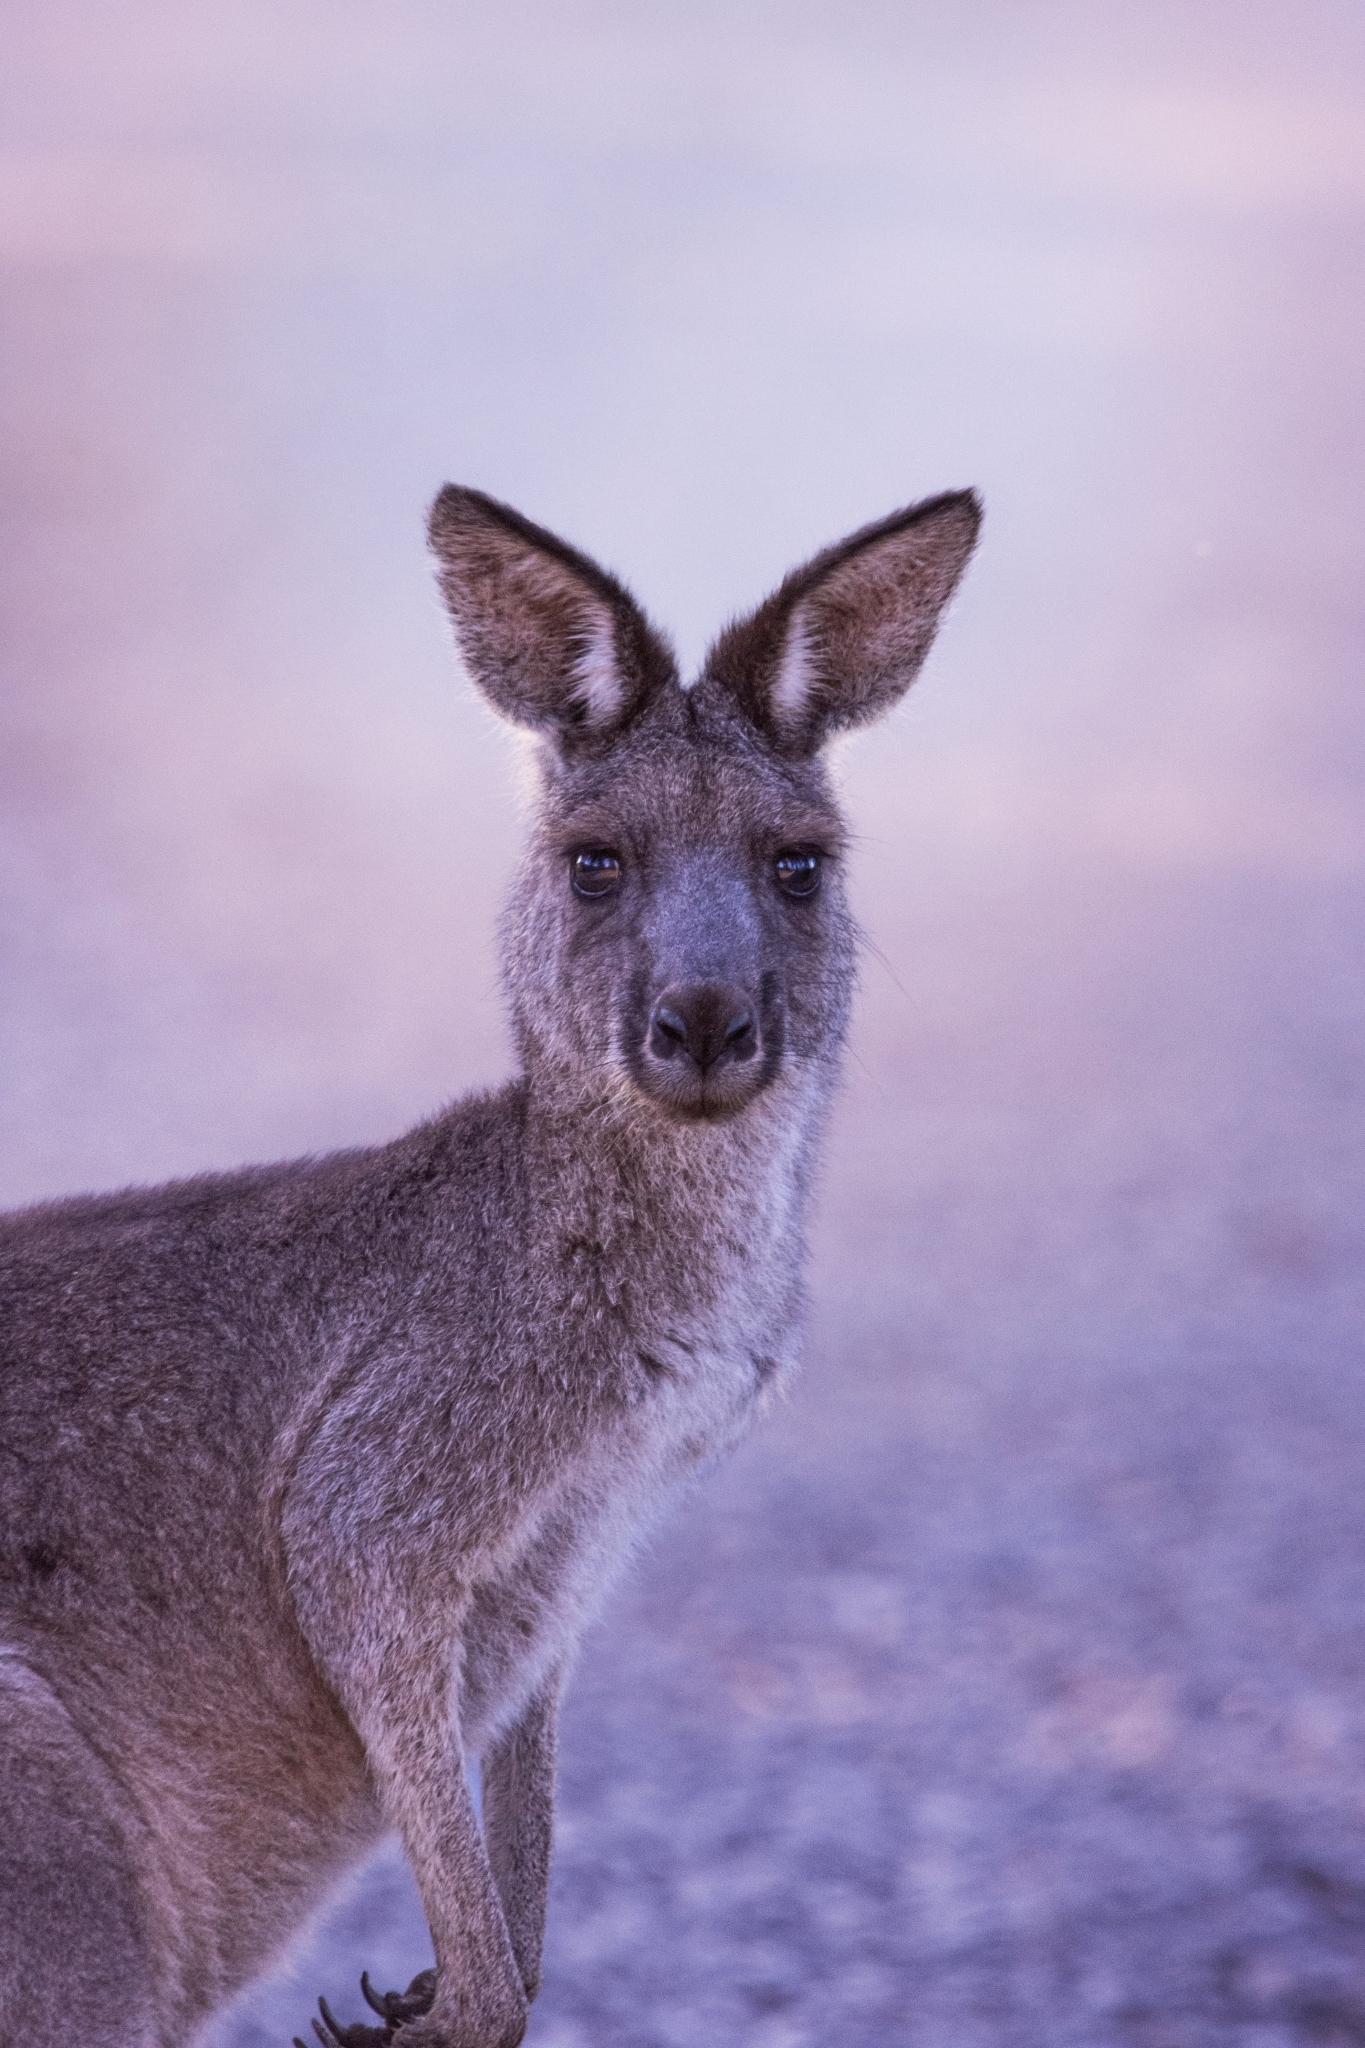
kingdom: Animalia
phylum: Chordata
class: Mammalia
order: Diprotodontia
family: Macropodidae
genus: Macropus
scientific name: Macropus giganteus
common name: Eastern grey kangaroo
